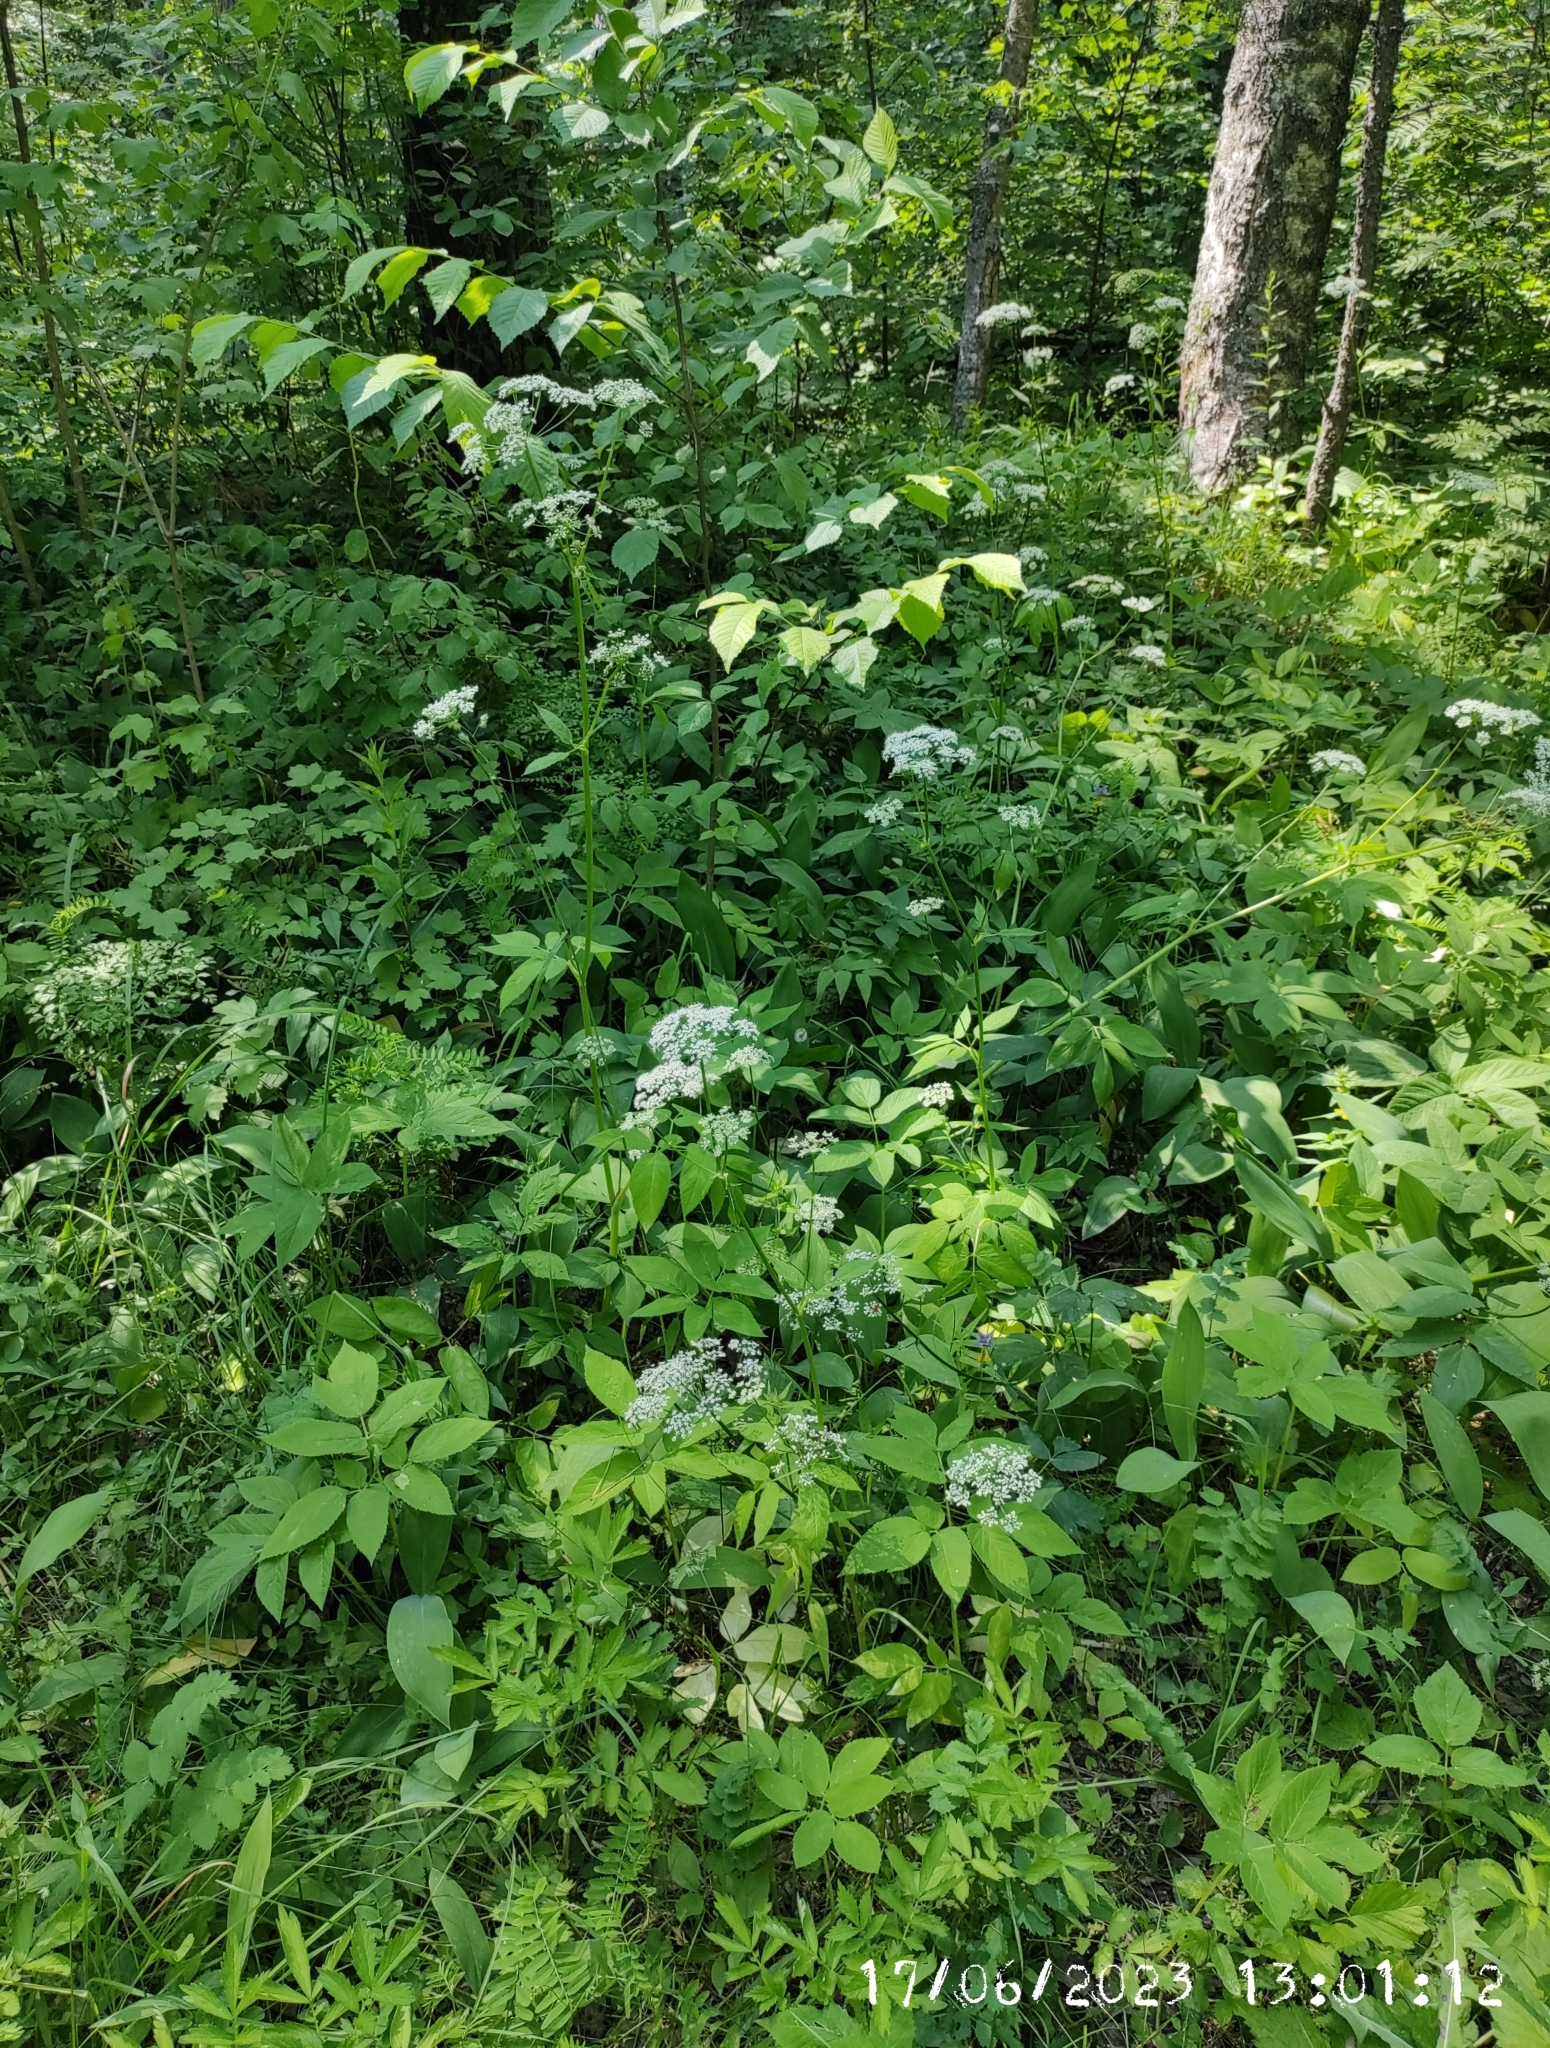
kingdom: Plantae
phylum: Tracheophyta
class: Magnoliopsida
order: Apiales
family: Apiaceae
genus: Aegopodium
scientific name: Aegopodium podagraria
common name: Ground-elder
